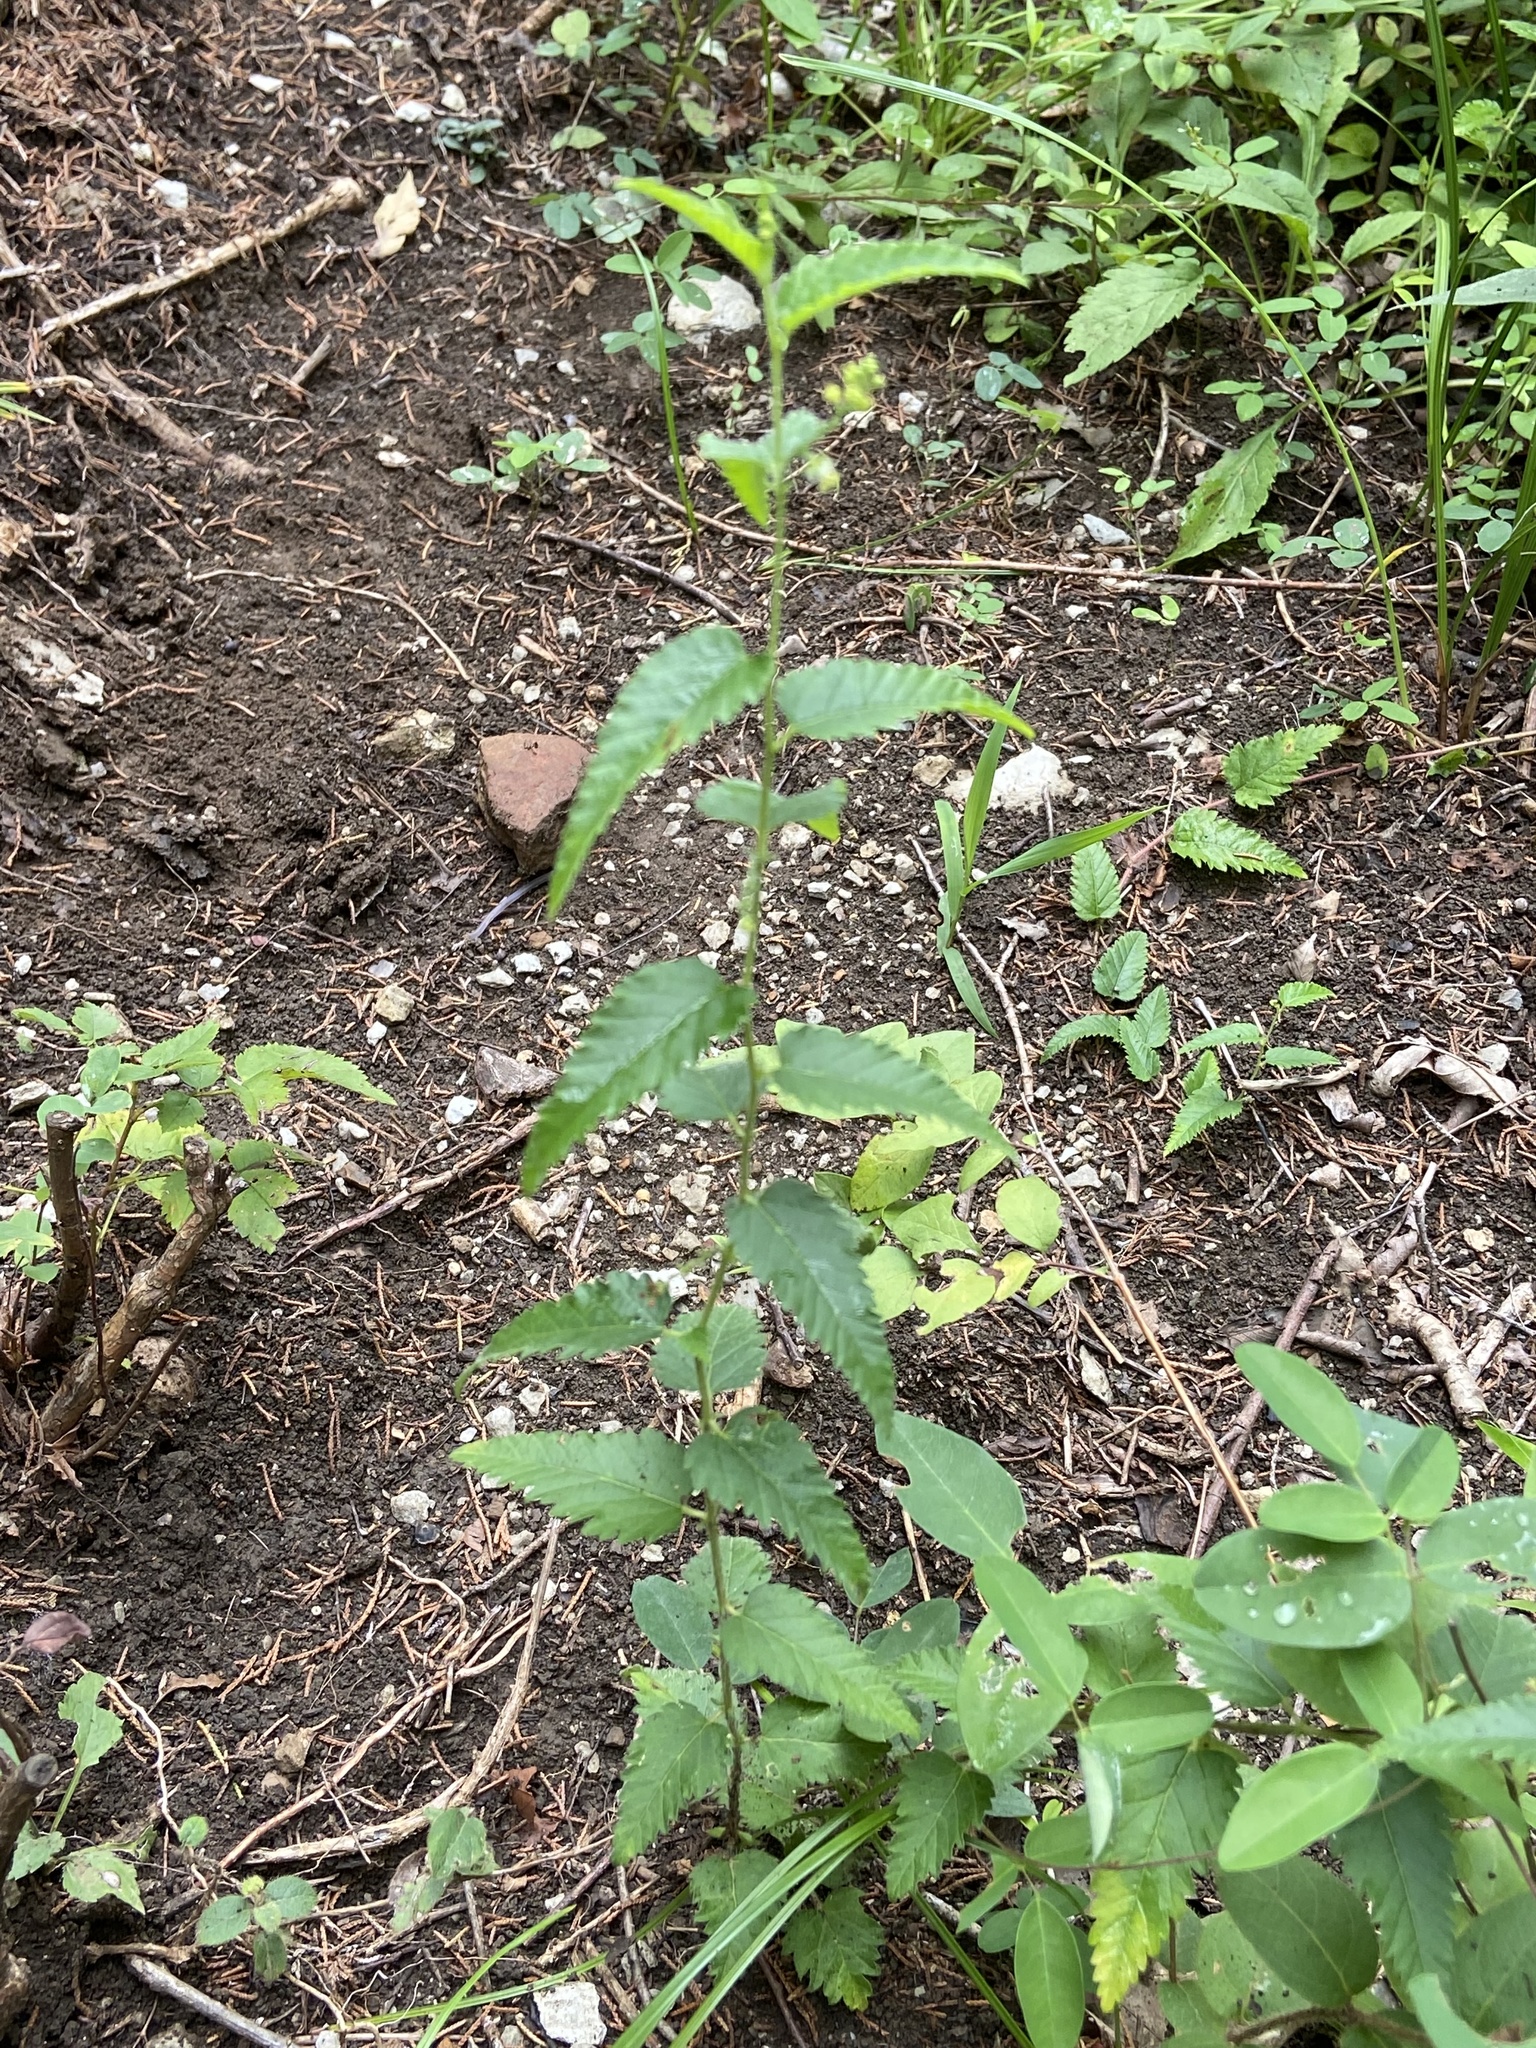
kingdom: Plantae
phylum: Tracheophyta
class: Magnoliopsida
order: Malpighiales
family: Euphorbiaceae
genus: Tragia
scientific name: Tragia urticifolia
